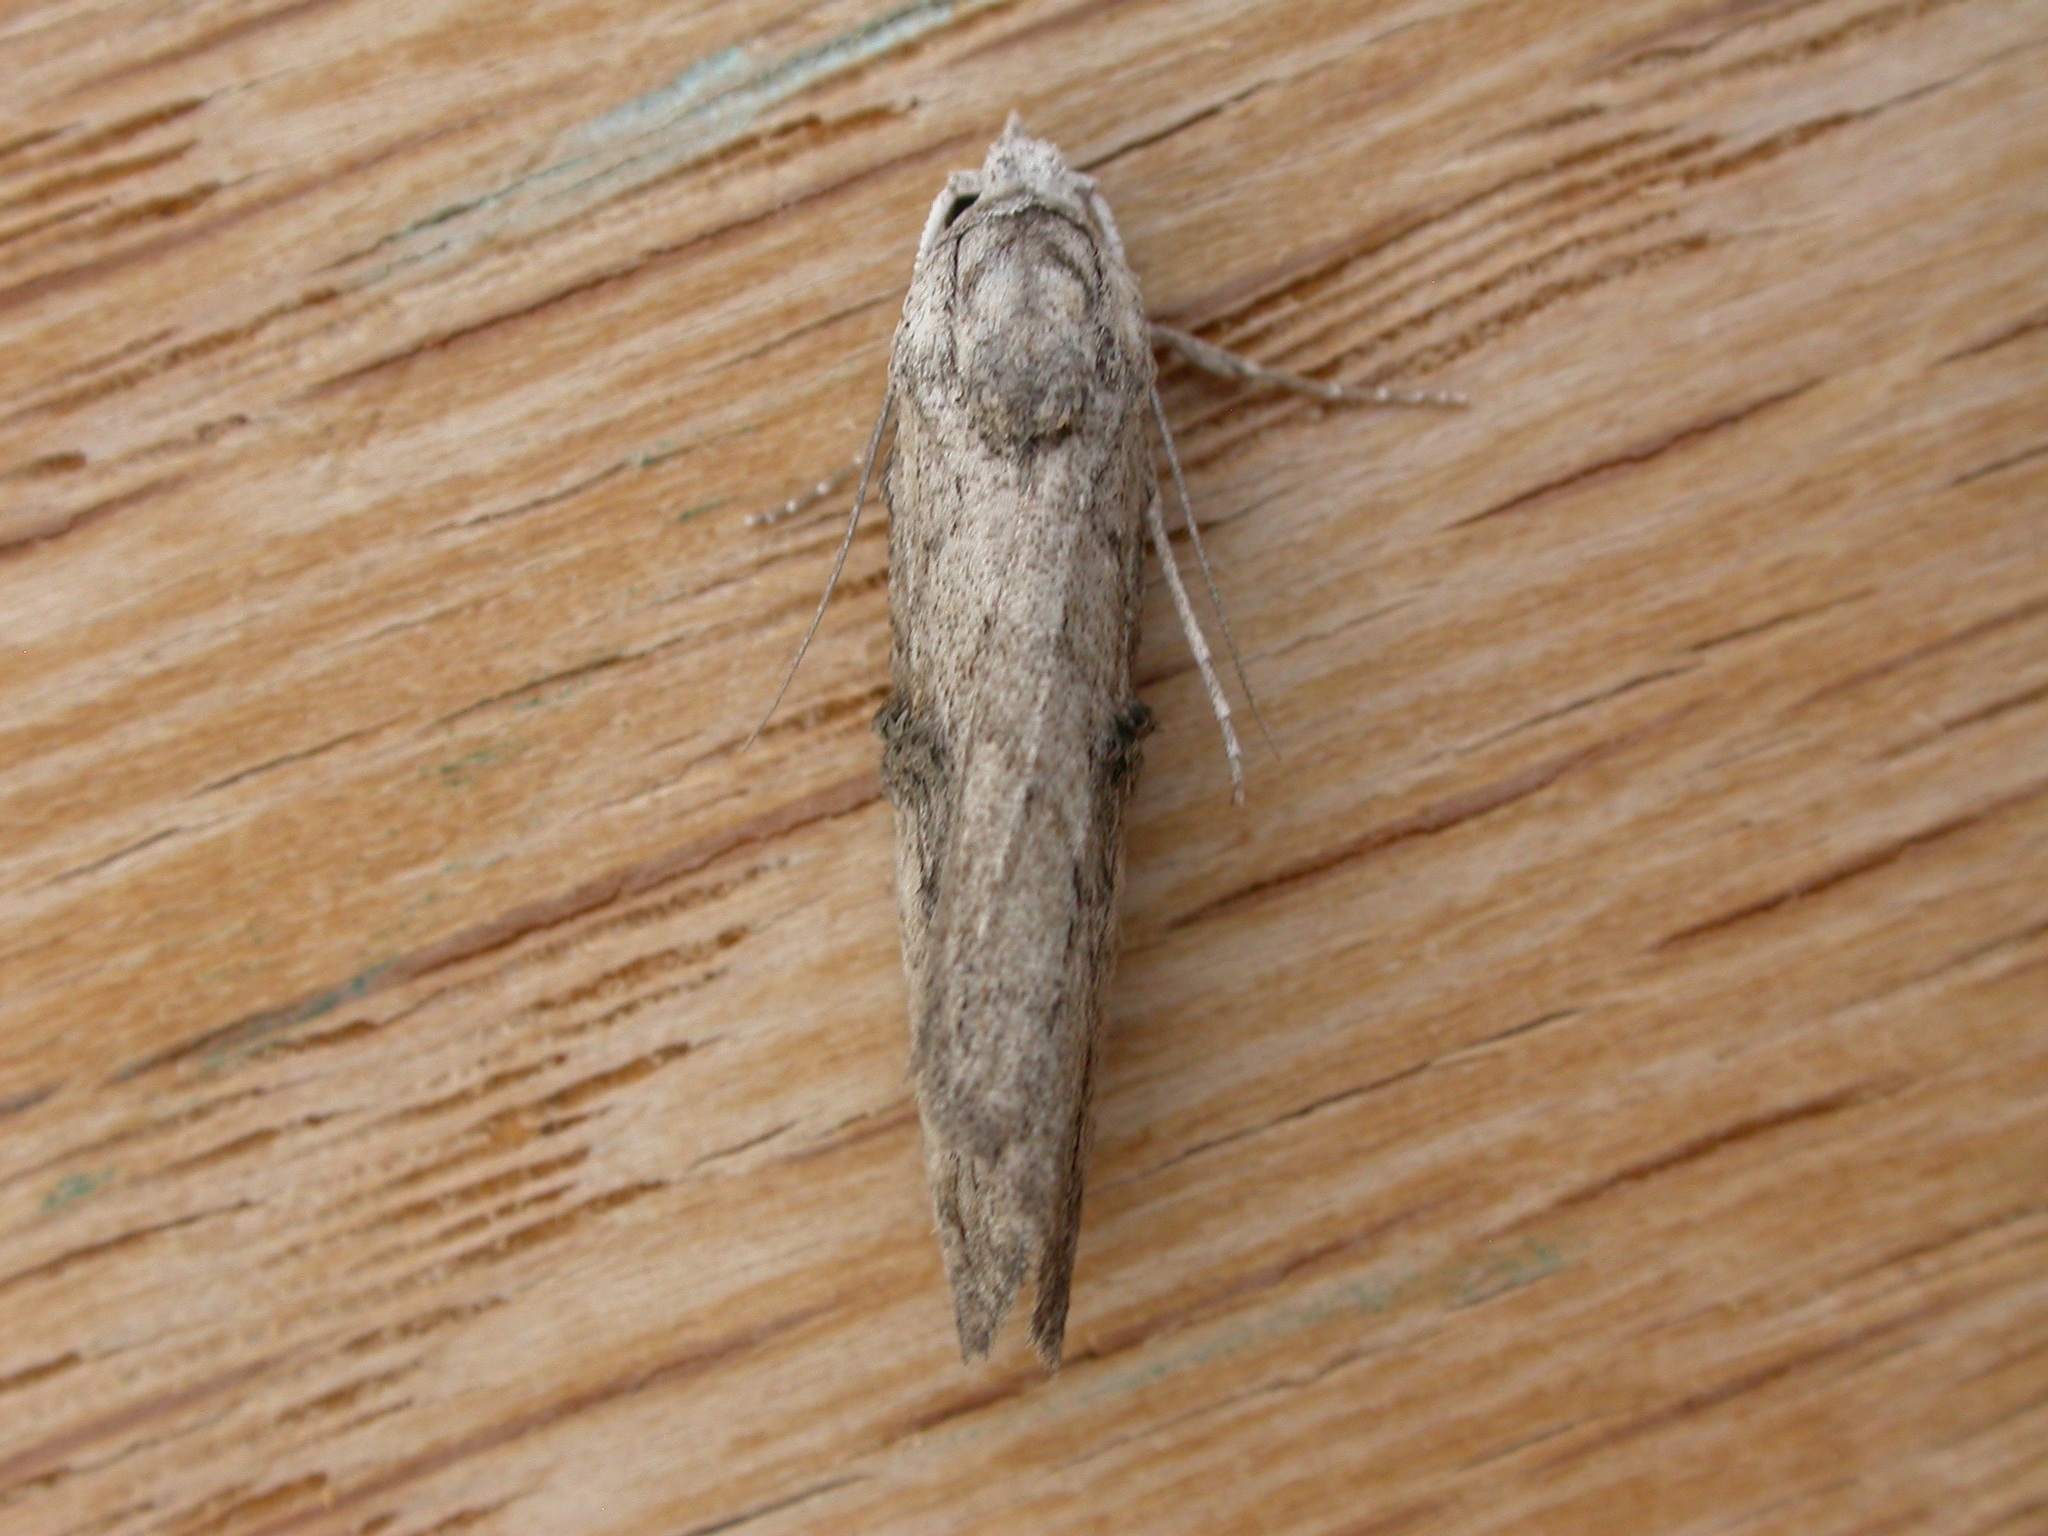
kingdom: Animalia
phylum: Arthropoda
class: Insecta
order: Lepidoptera
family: Nolidae
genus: Aquita
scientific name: Aquita plagiochyta
